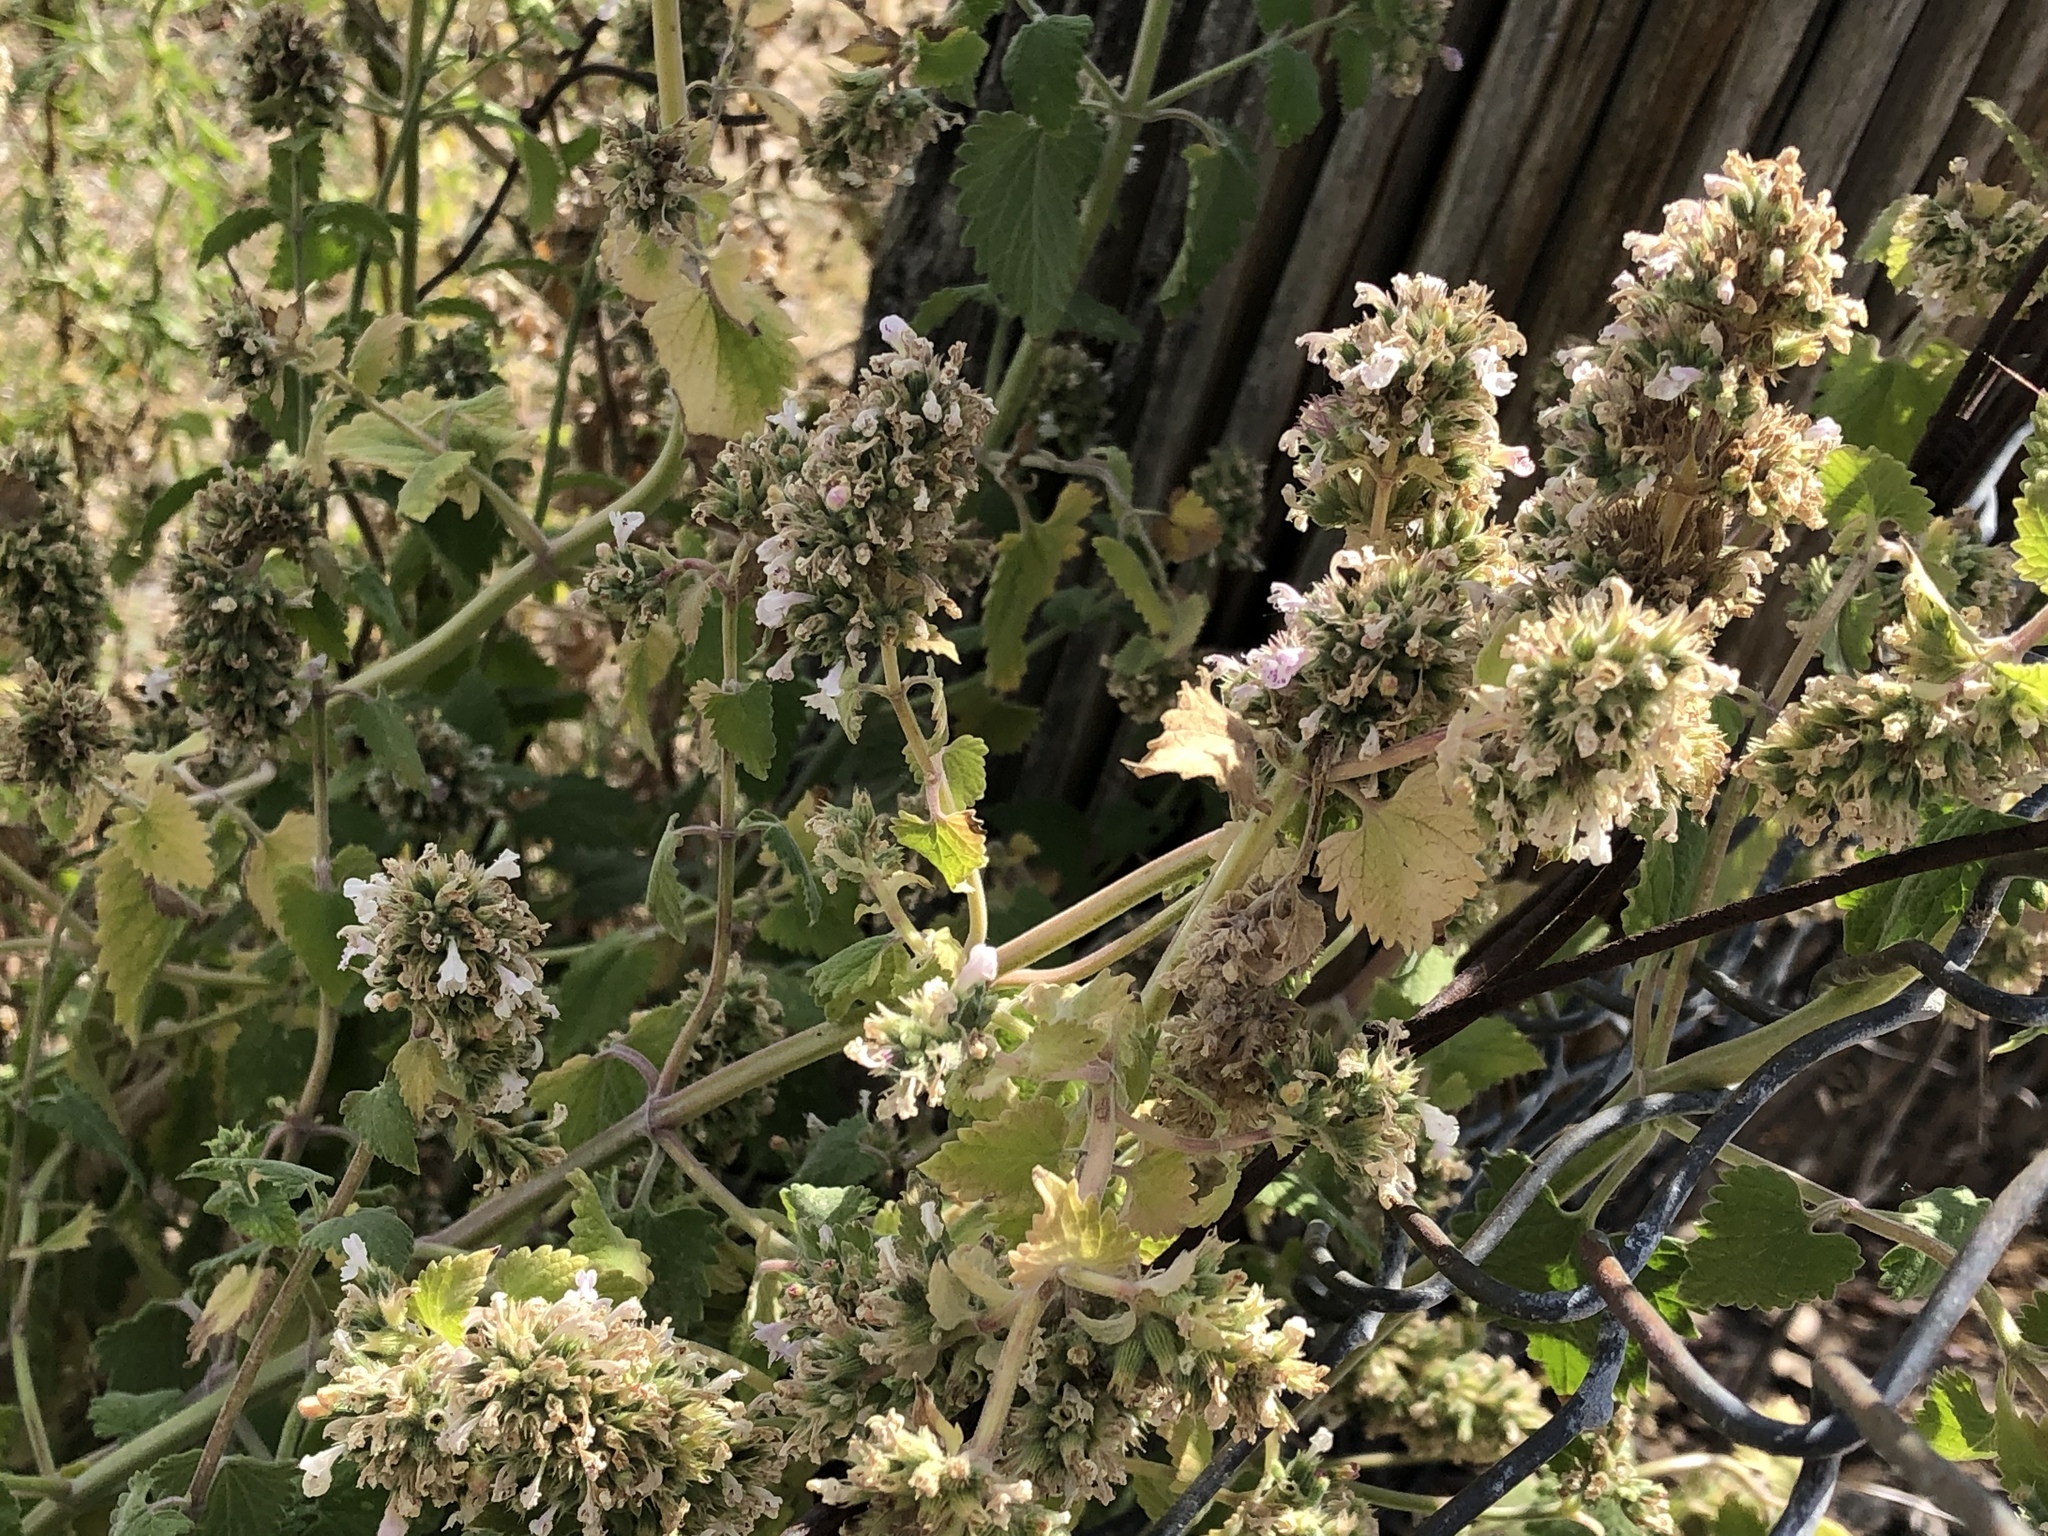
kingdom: Plantae
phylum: Tracheophyta
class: Magnoliopsida
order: Lamiales
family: Lamiaceae
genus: Nepeta
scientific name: Nepeta cataria
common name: Catnip
